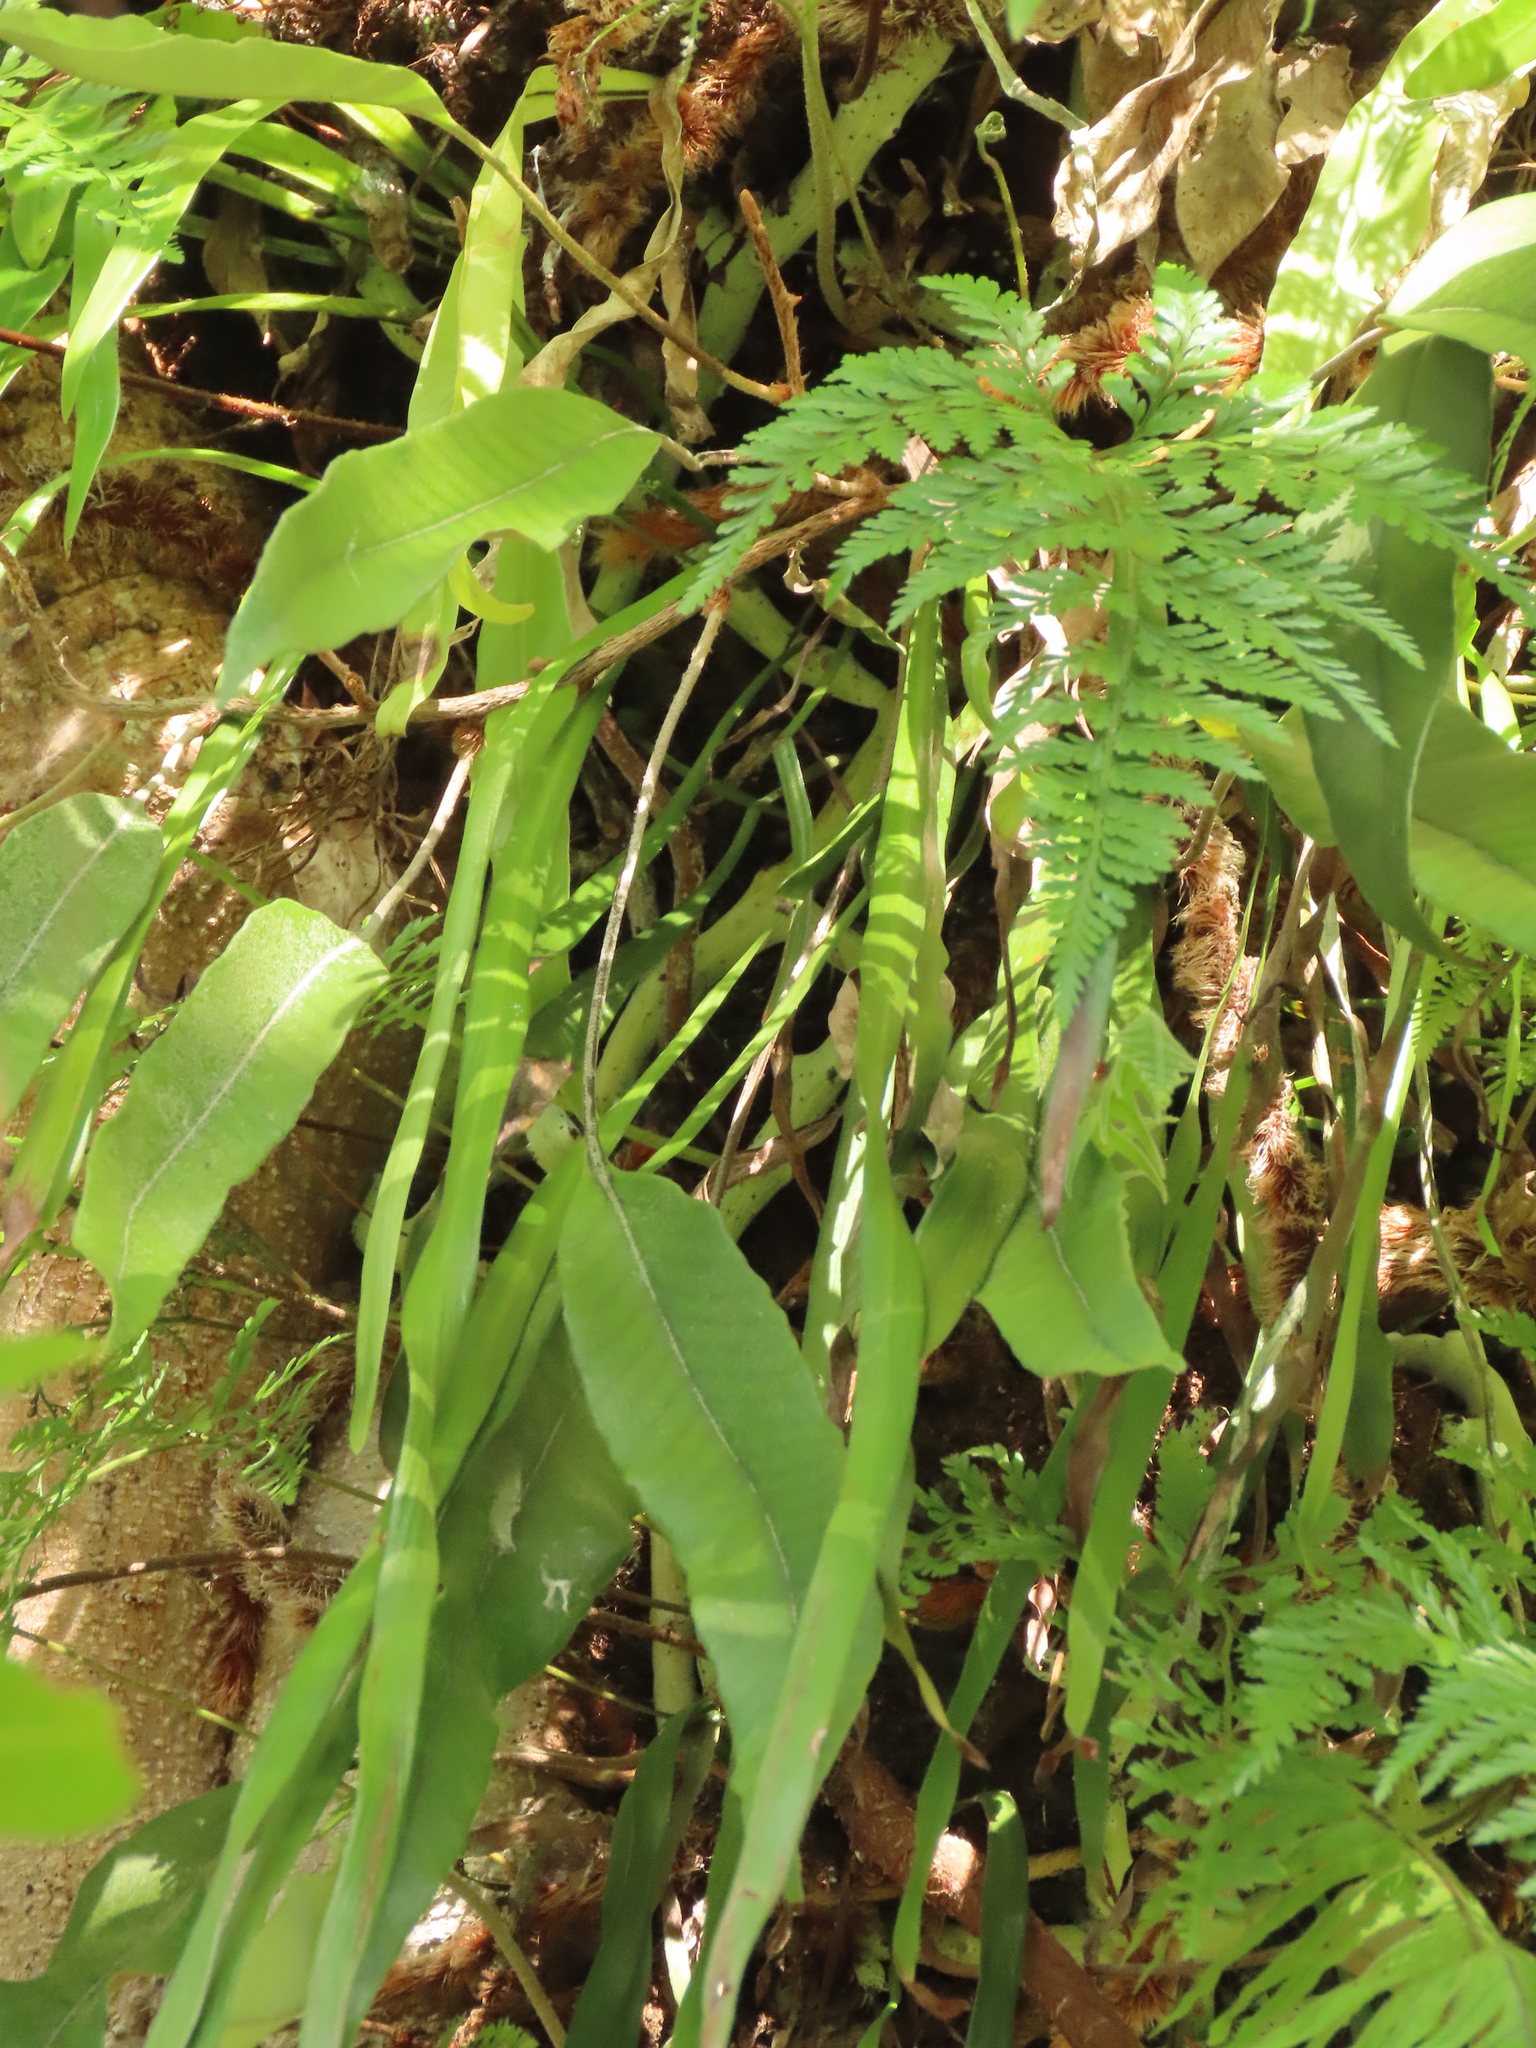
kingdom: Plantae
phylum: Tracheophyta
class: Polypodiopsida
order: Polypodiales
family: Pteridaceae
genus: Haplopteris
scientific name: Haplopteris elongata
